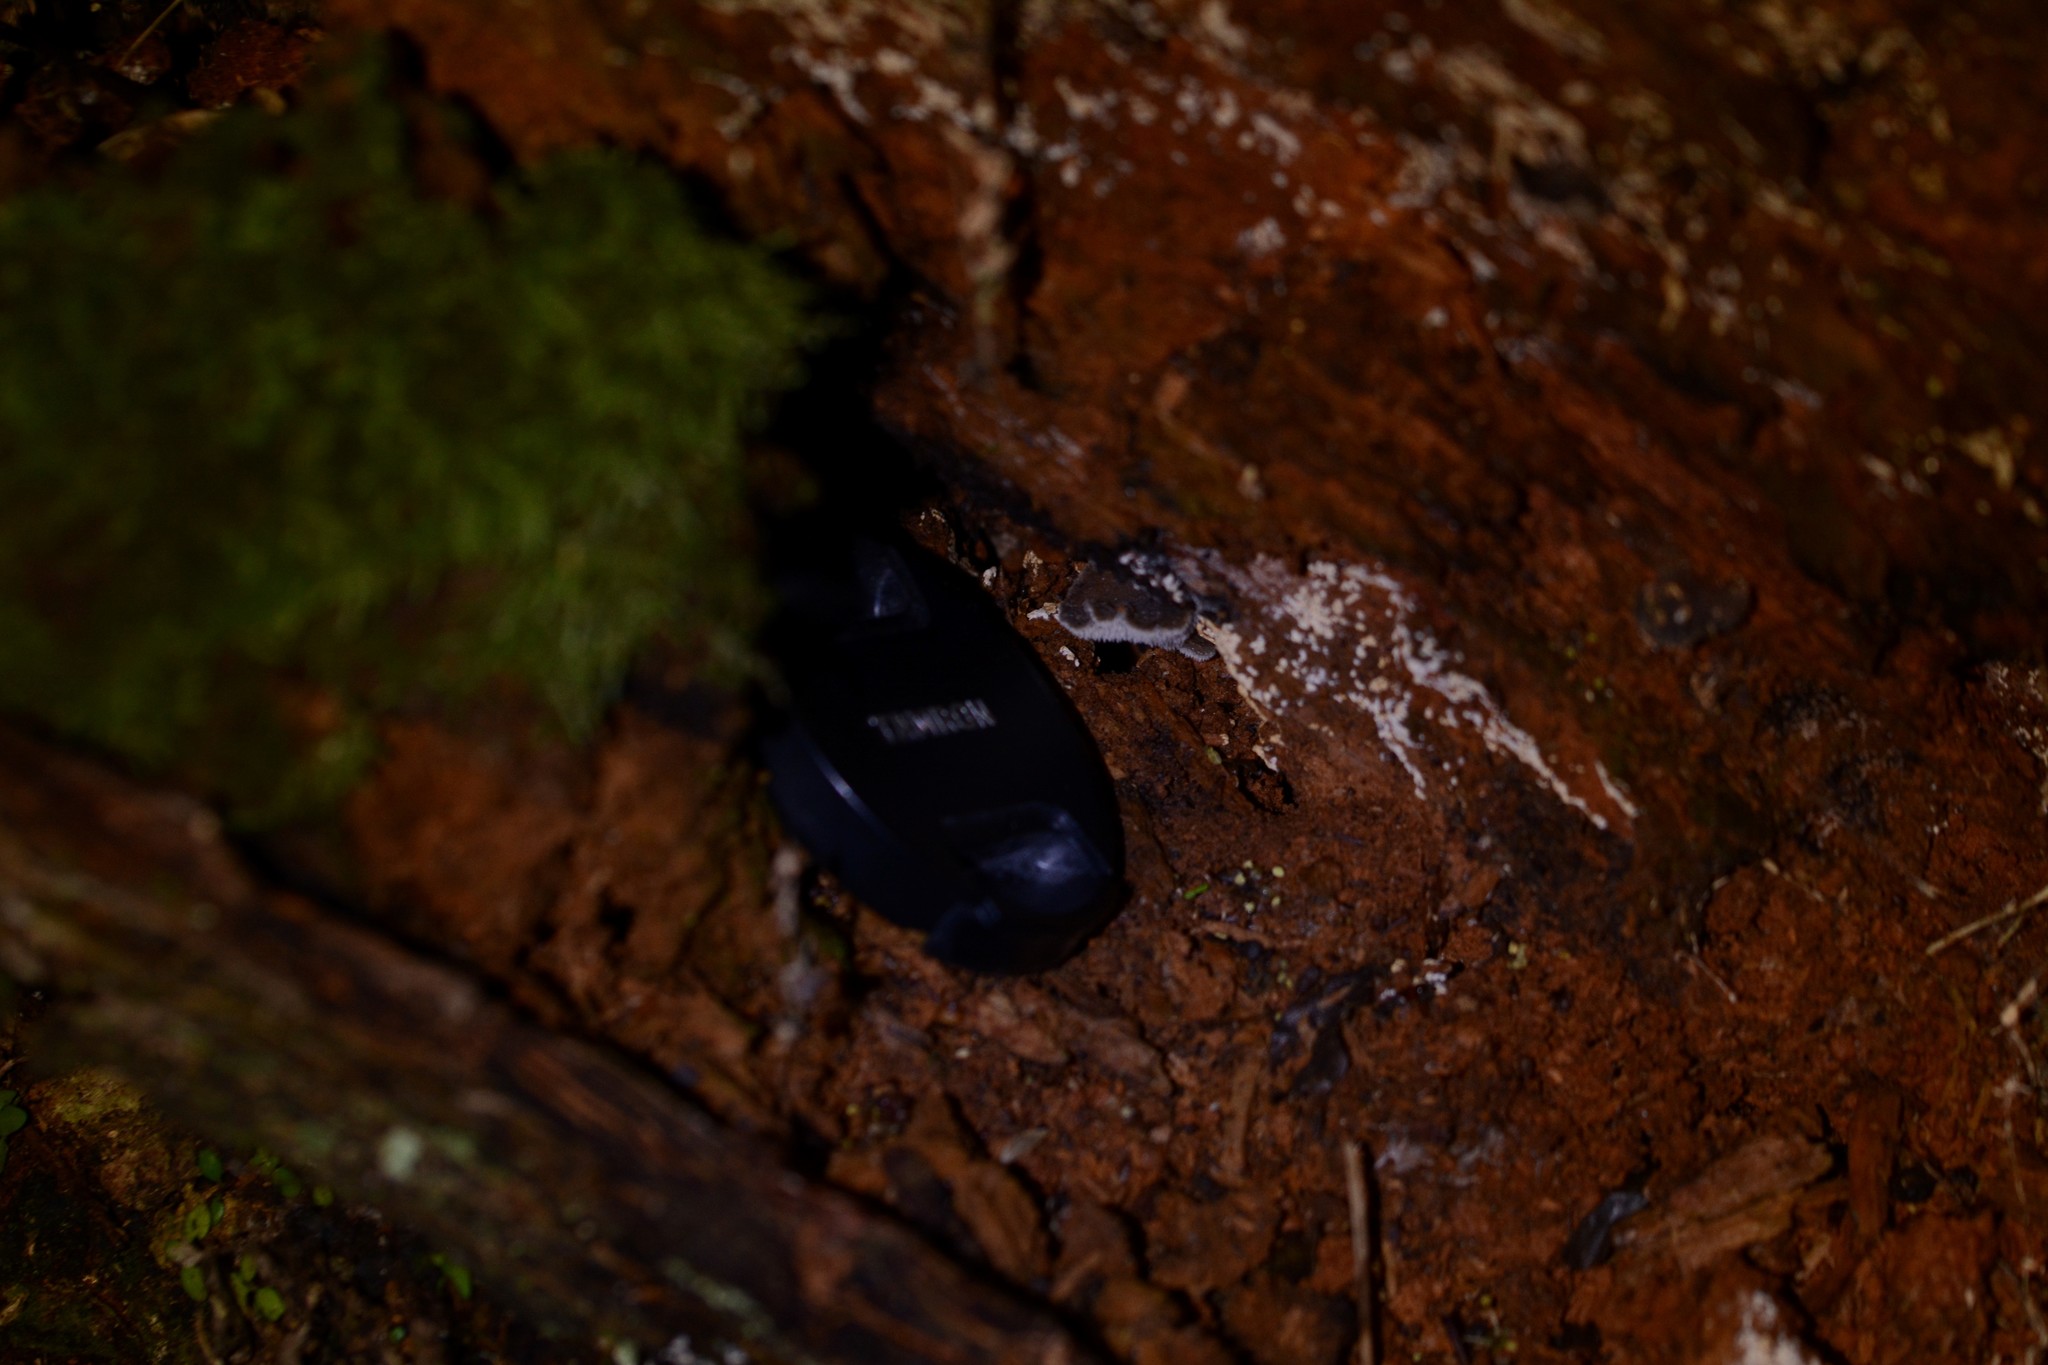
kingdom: Fungi
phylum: Basidiomycota
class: Agaricomycetes
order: Auriculariales
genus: Pseudohydnum
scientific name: Pseudohydnum orbiculare
